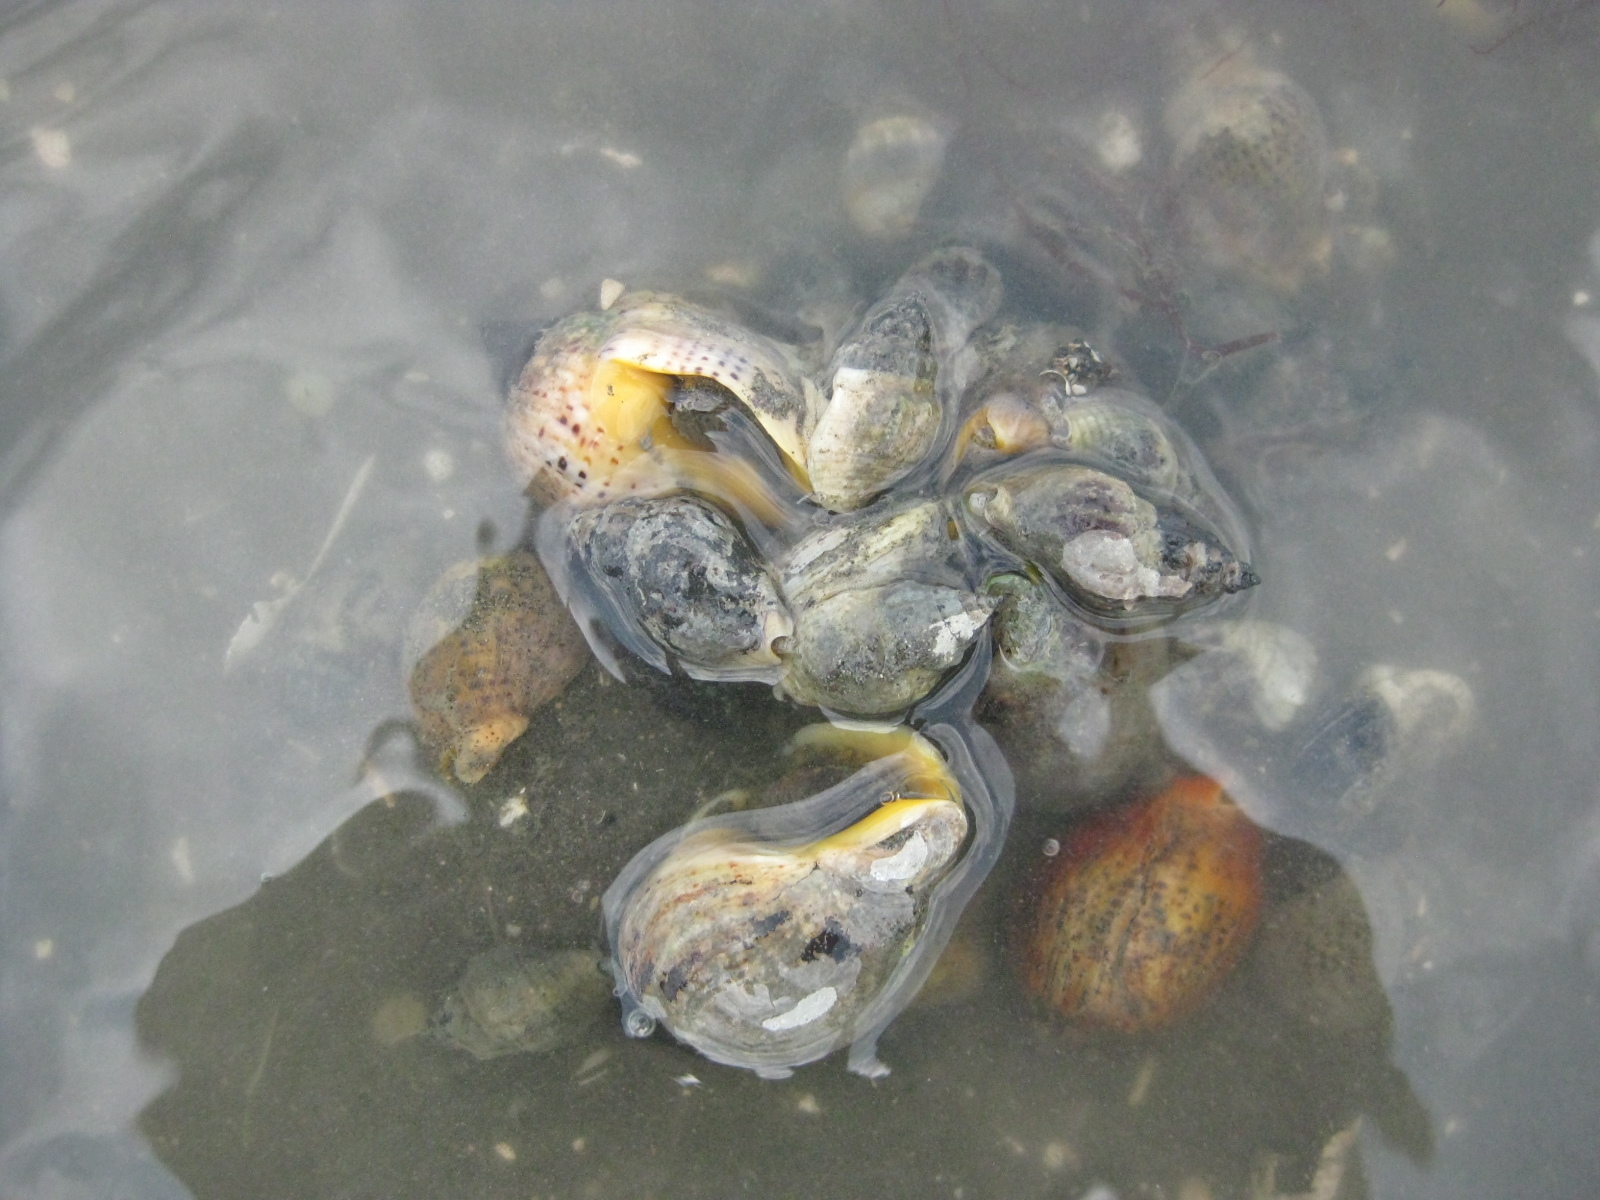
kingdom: Animalia
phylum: Mollusca
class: Gastropoda
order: Neogastropoda
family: Cominellidae
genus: Cominella
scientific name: Cominella
